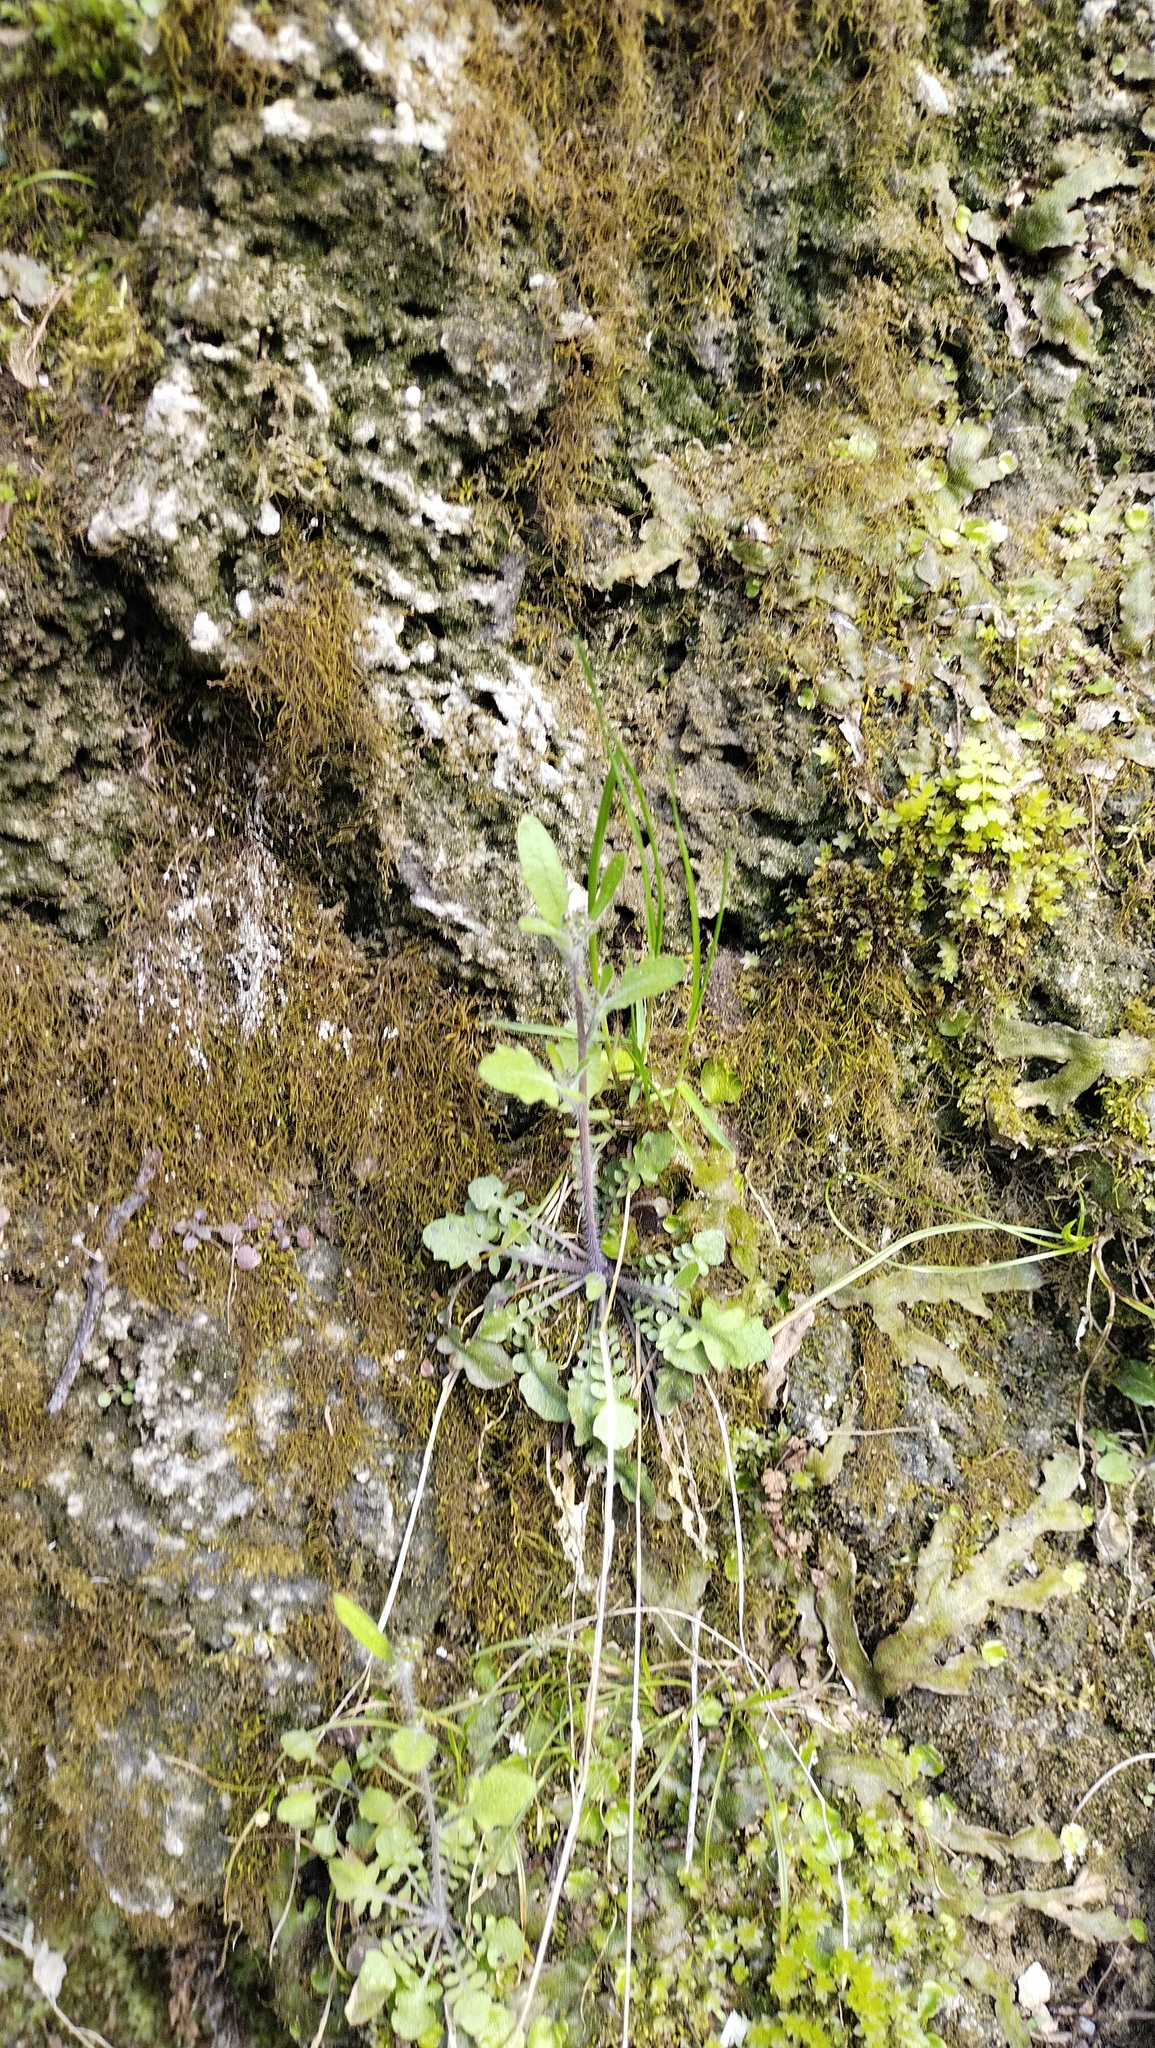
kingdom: Plantae
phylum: Tracheophyta
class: Magnoliopsida
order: Brassicales
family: Brassicaceae
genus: Arabidopsis
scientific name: Arabidopsis arenosa
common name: Sand rock-cress
